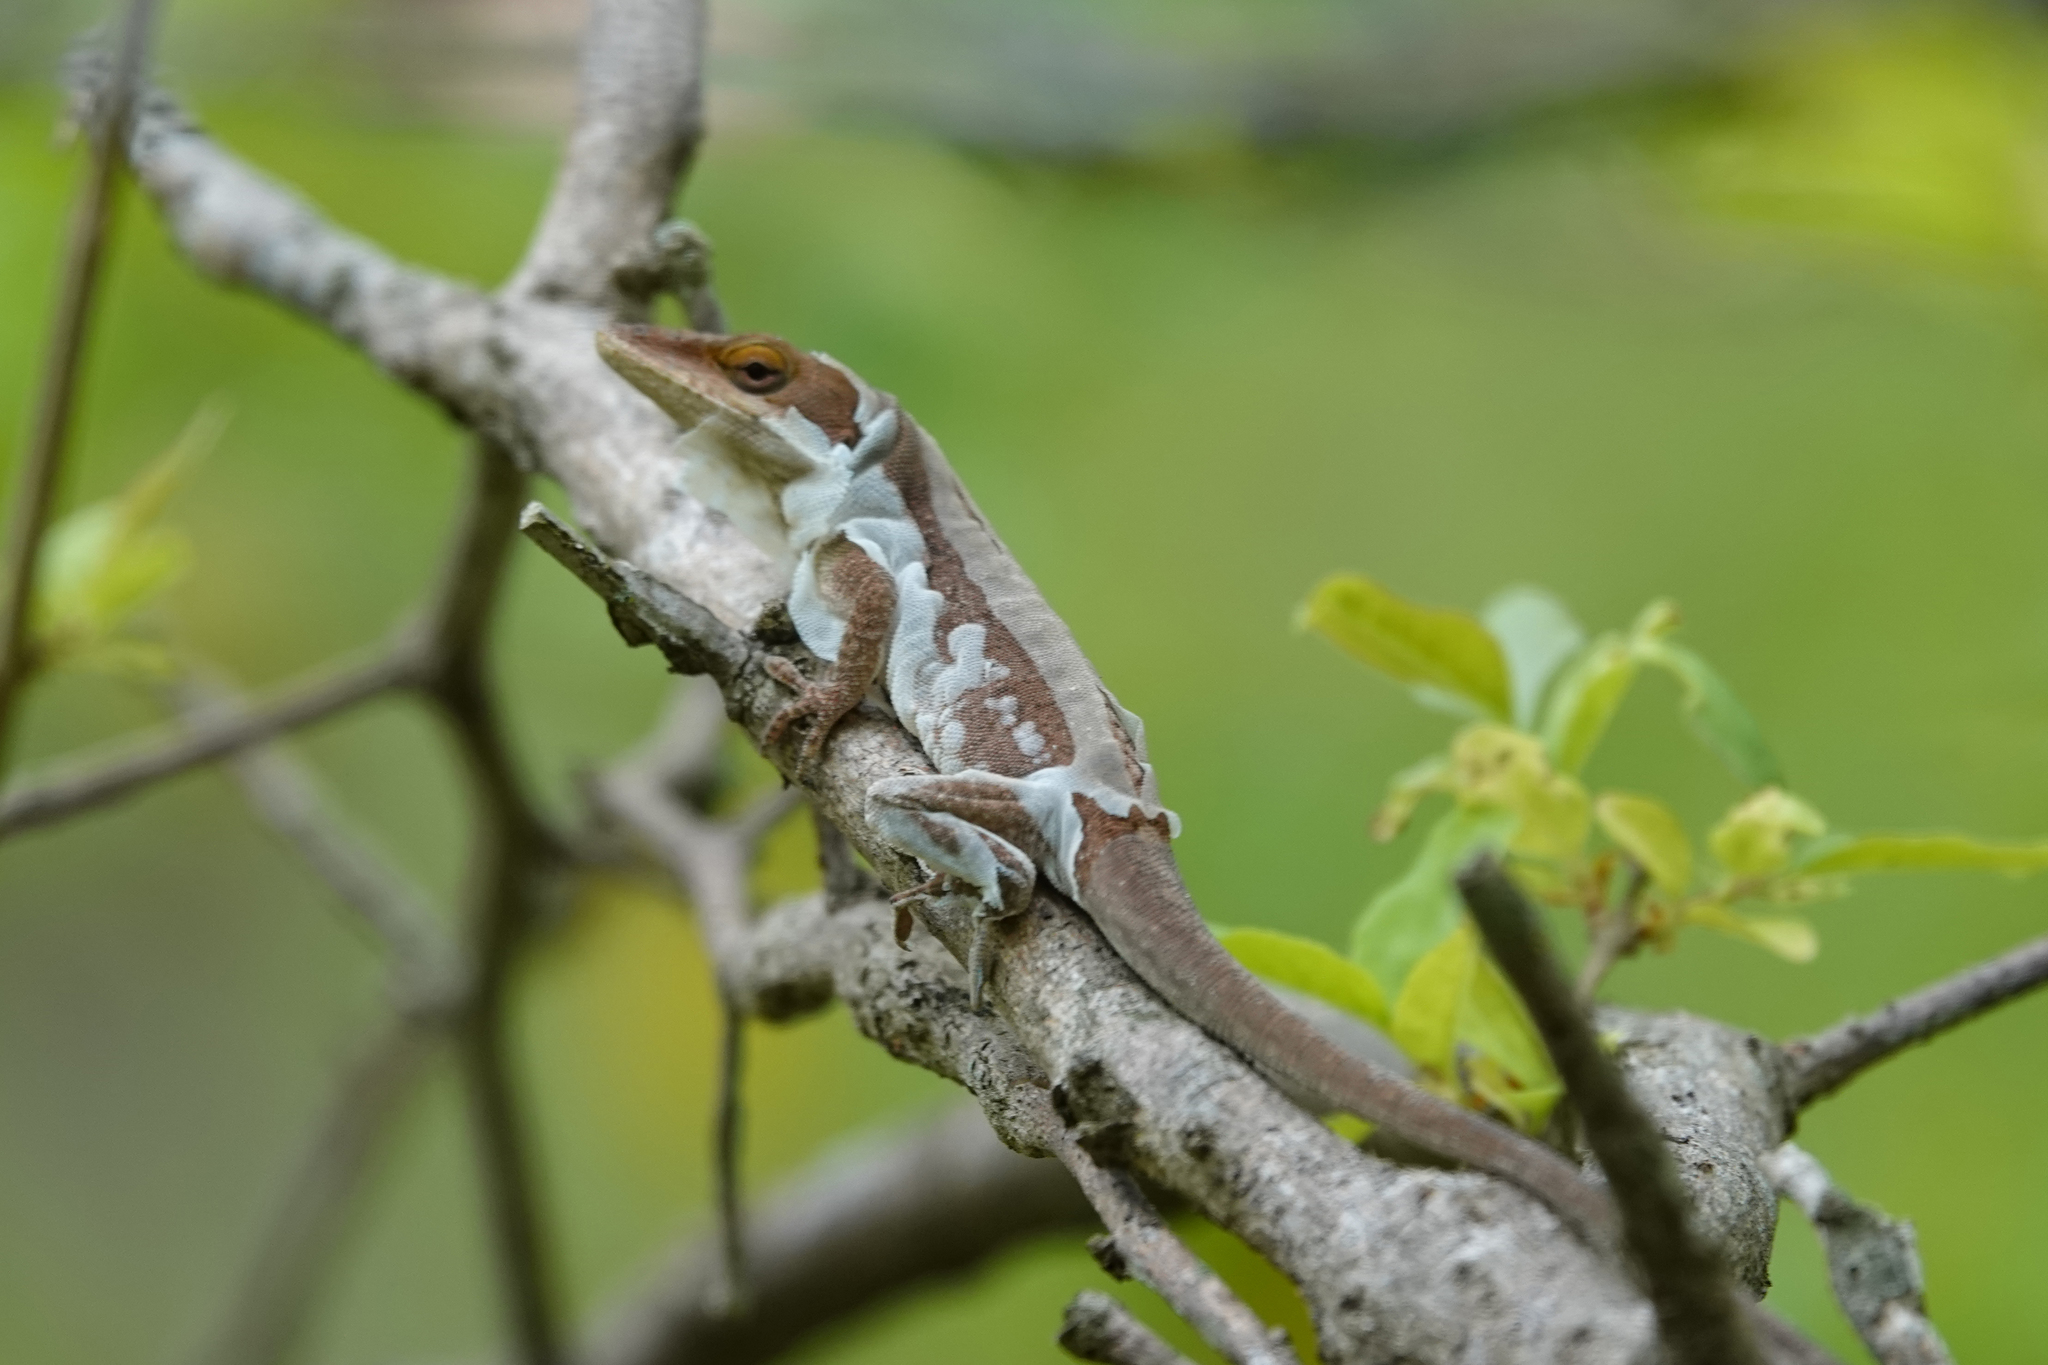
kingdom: Animalia
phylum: Chordata
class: Squamata
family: Dactyloidae
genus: Anolis
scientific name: Anolis carolinensis
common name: Green anole
